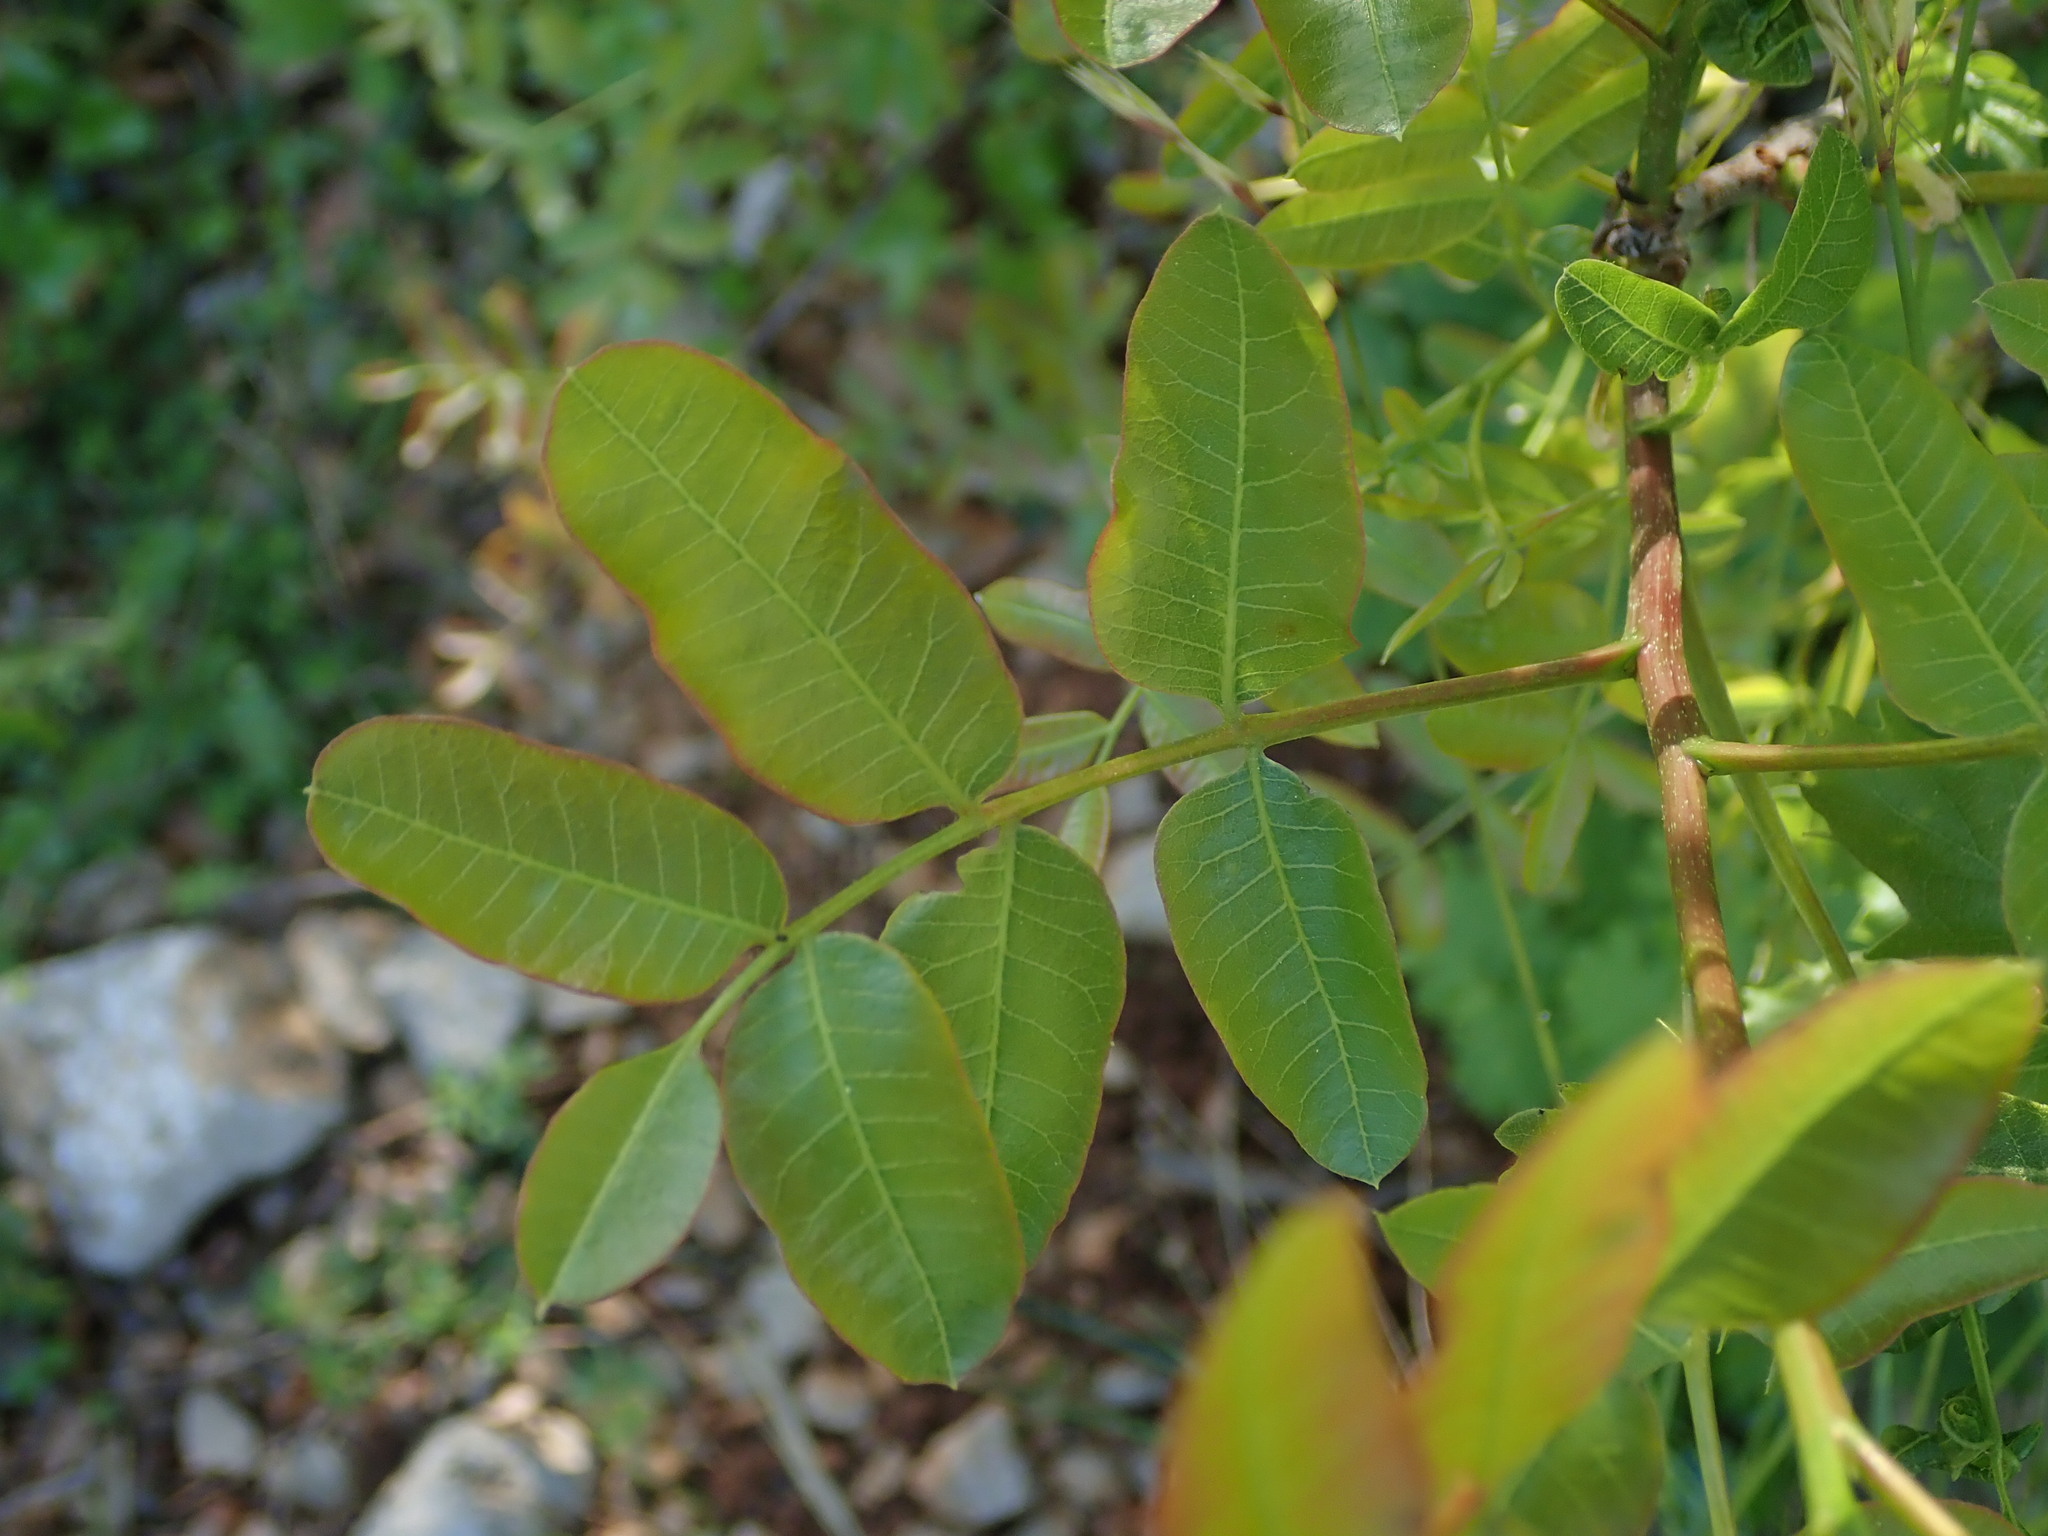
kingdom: Plantae
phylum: Tracheophyta
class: Magnoliopsida
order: Sapindales
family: Anacardiaceae
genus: Pistacia
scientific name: Pistacia terebinthus
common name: Terebinth
